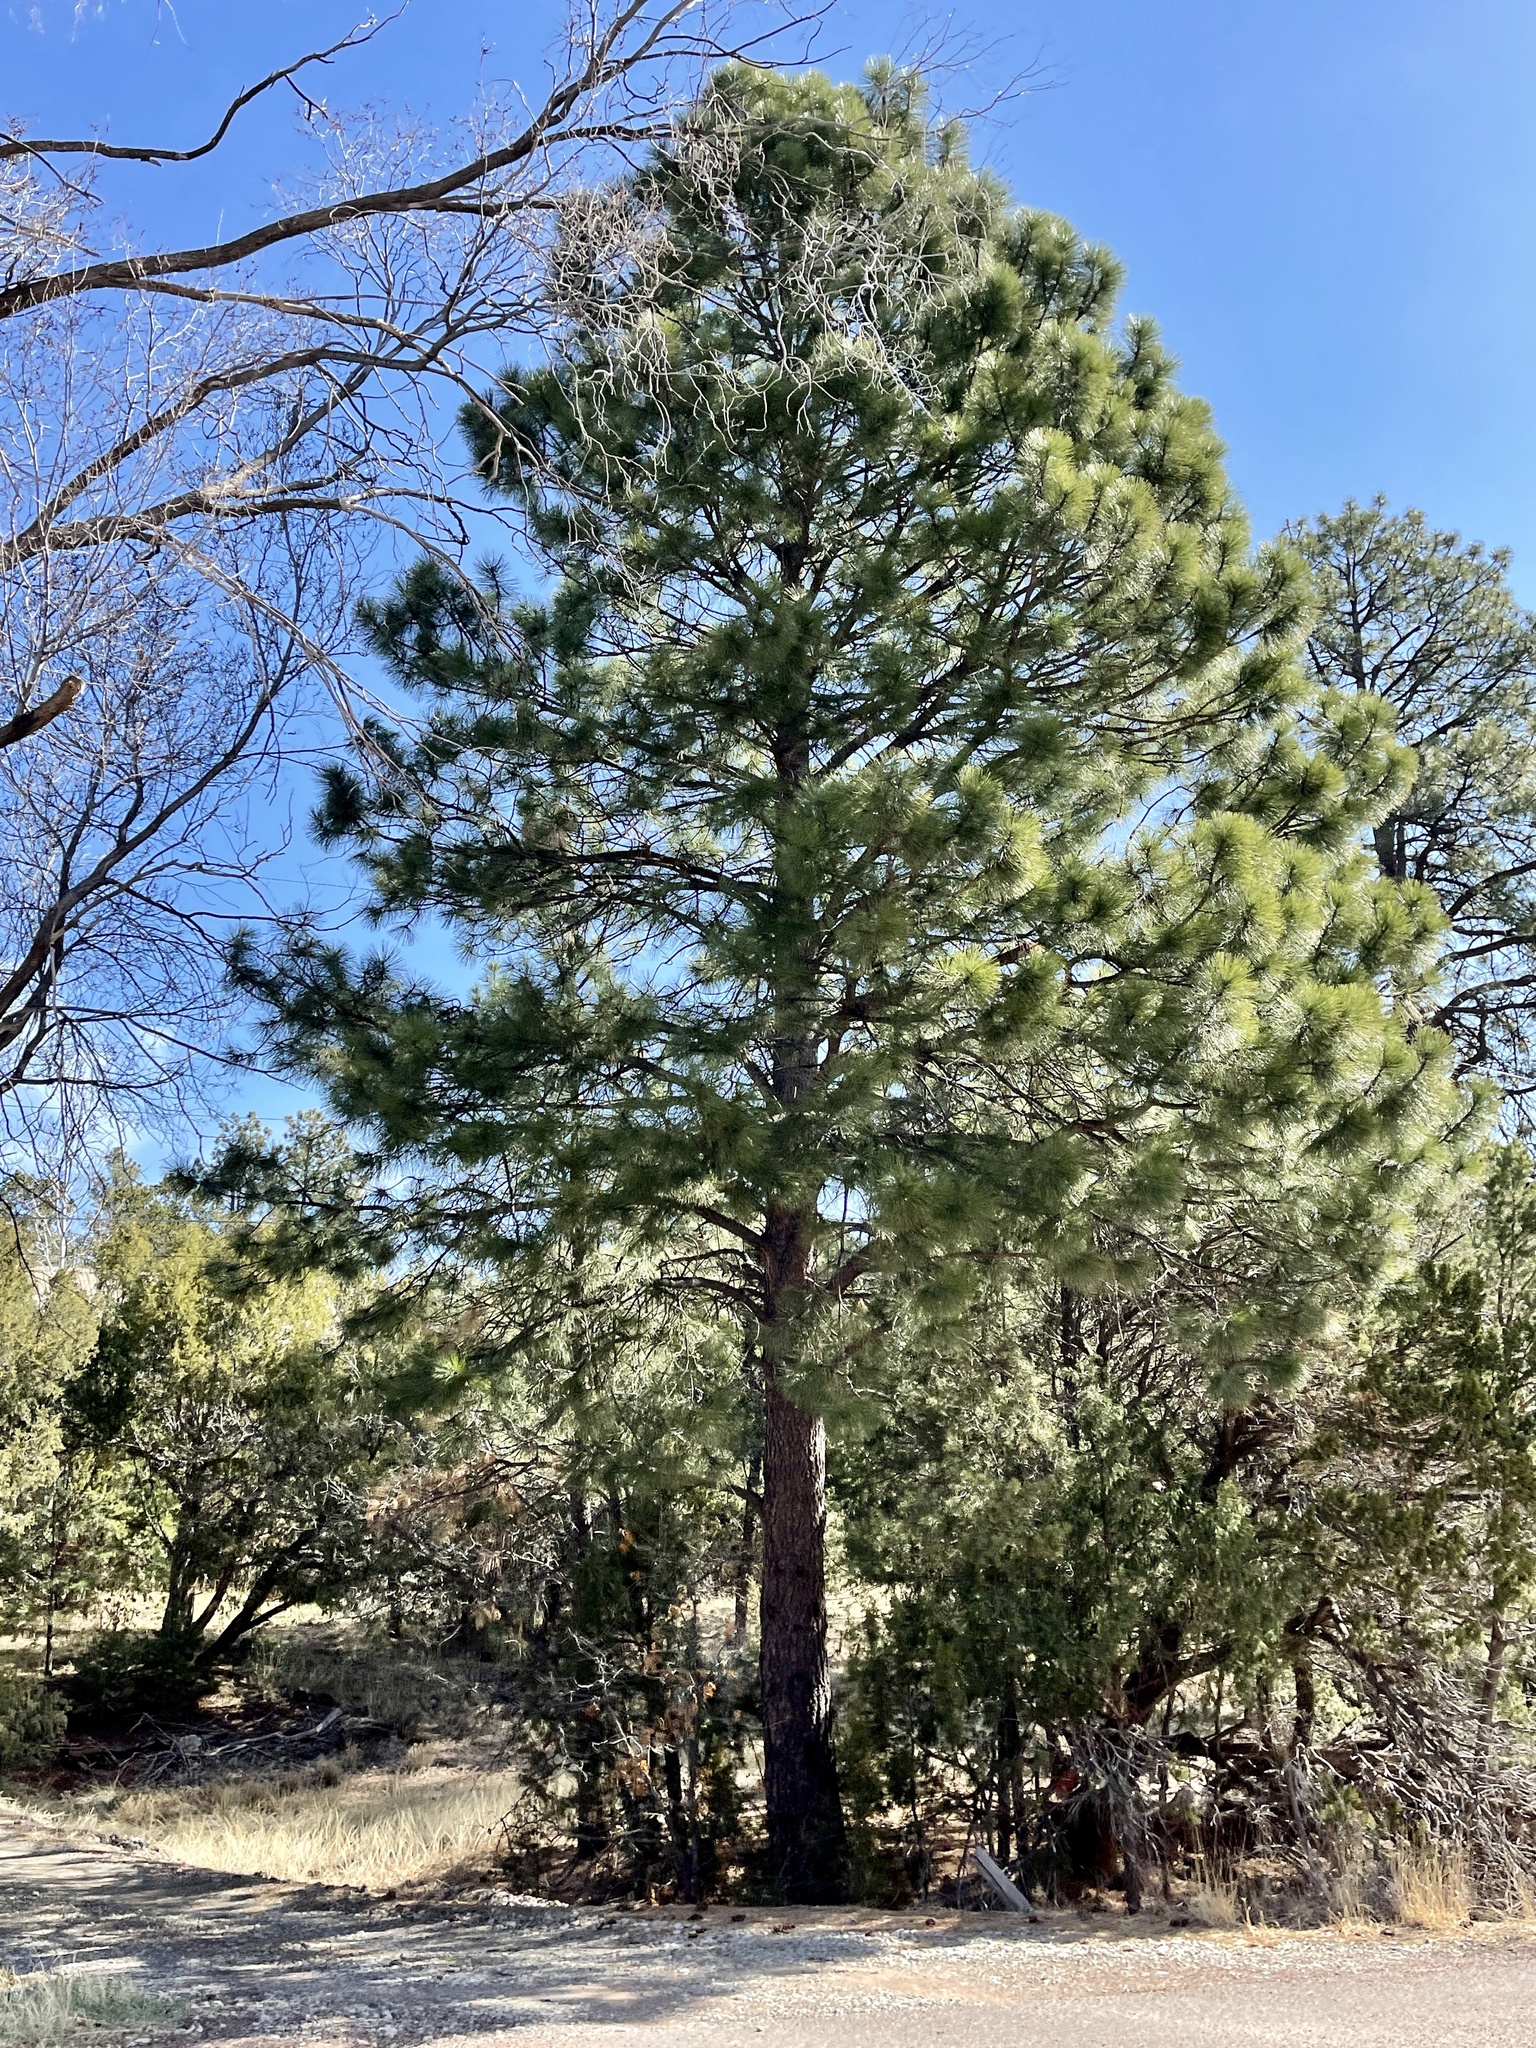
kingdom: Plantae
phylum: Tracheophyta
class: Pinopsida
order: Pinales
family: Pinaceae
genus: Pinus
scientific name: Pinus ponderosa
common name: Western yellow-pine
